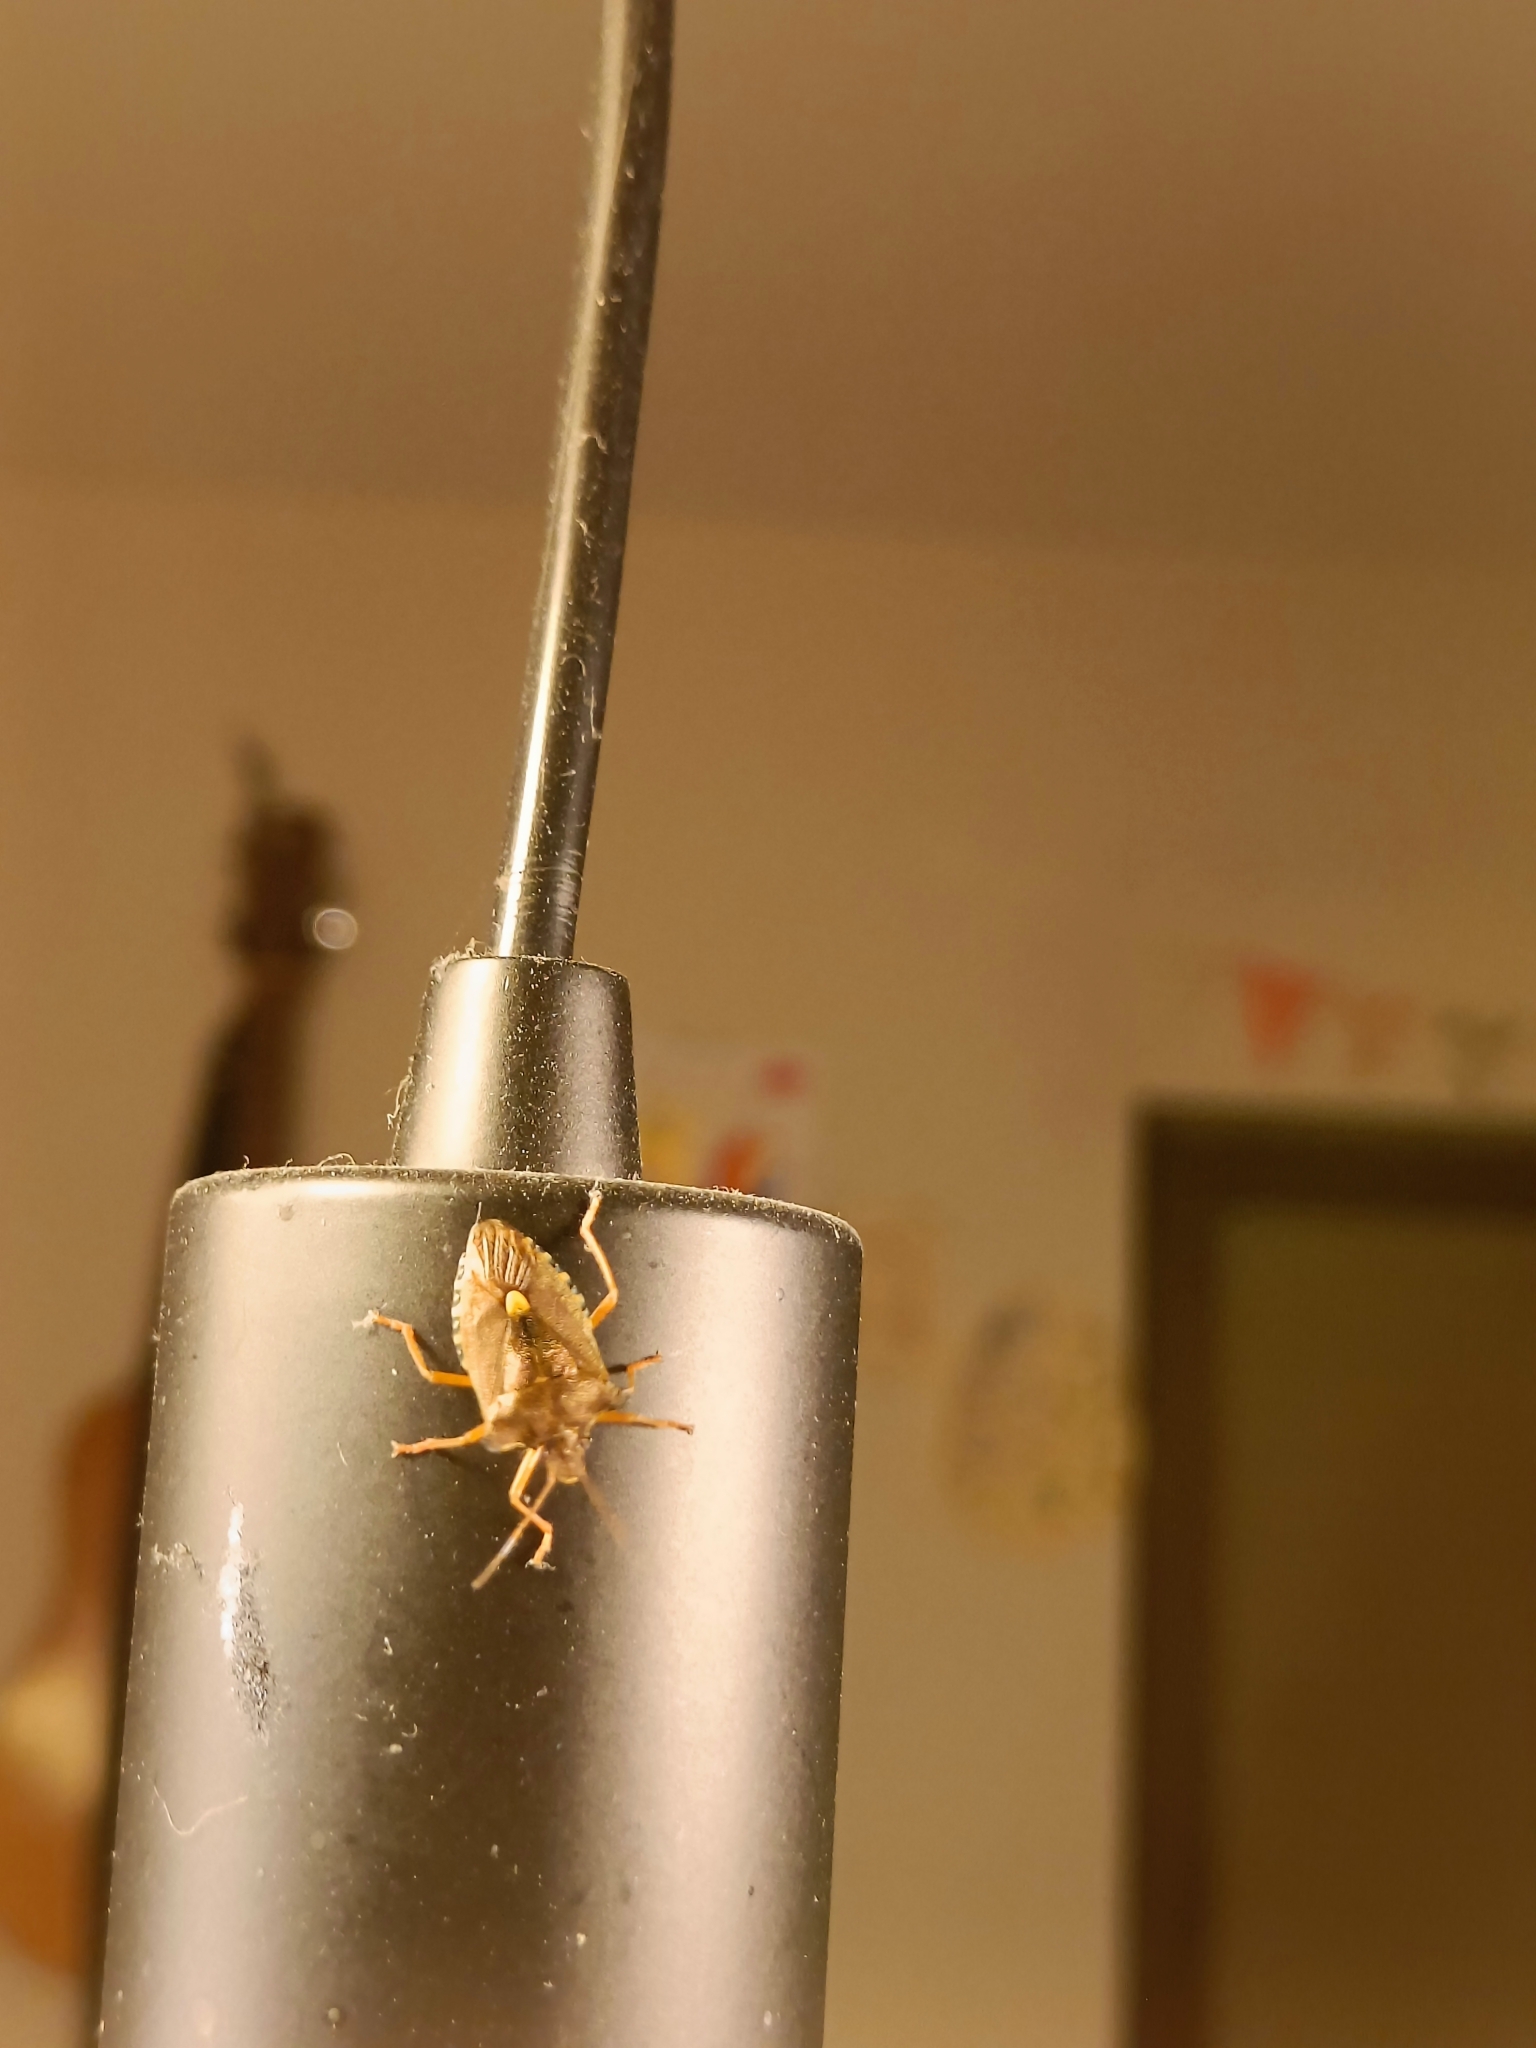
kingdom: Animalia
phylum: Arthropoda
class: Insecta
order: Hemiptera
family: Pentatomidae
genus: Pentatoma
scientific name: Pentatoma rufipes
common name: Forest bug
